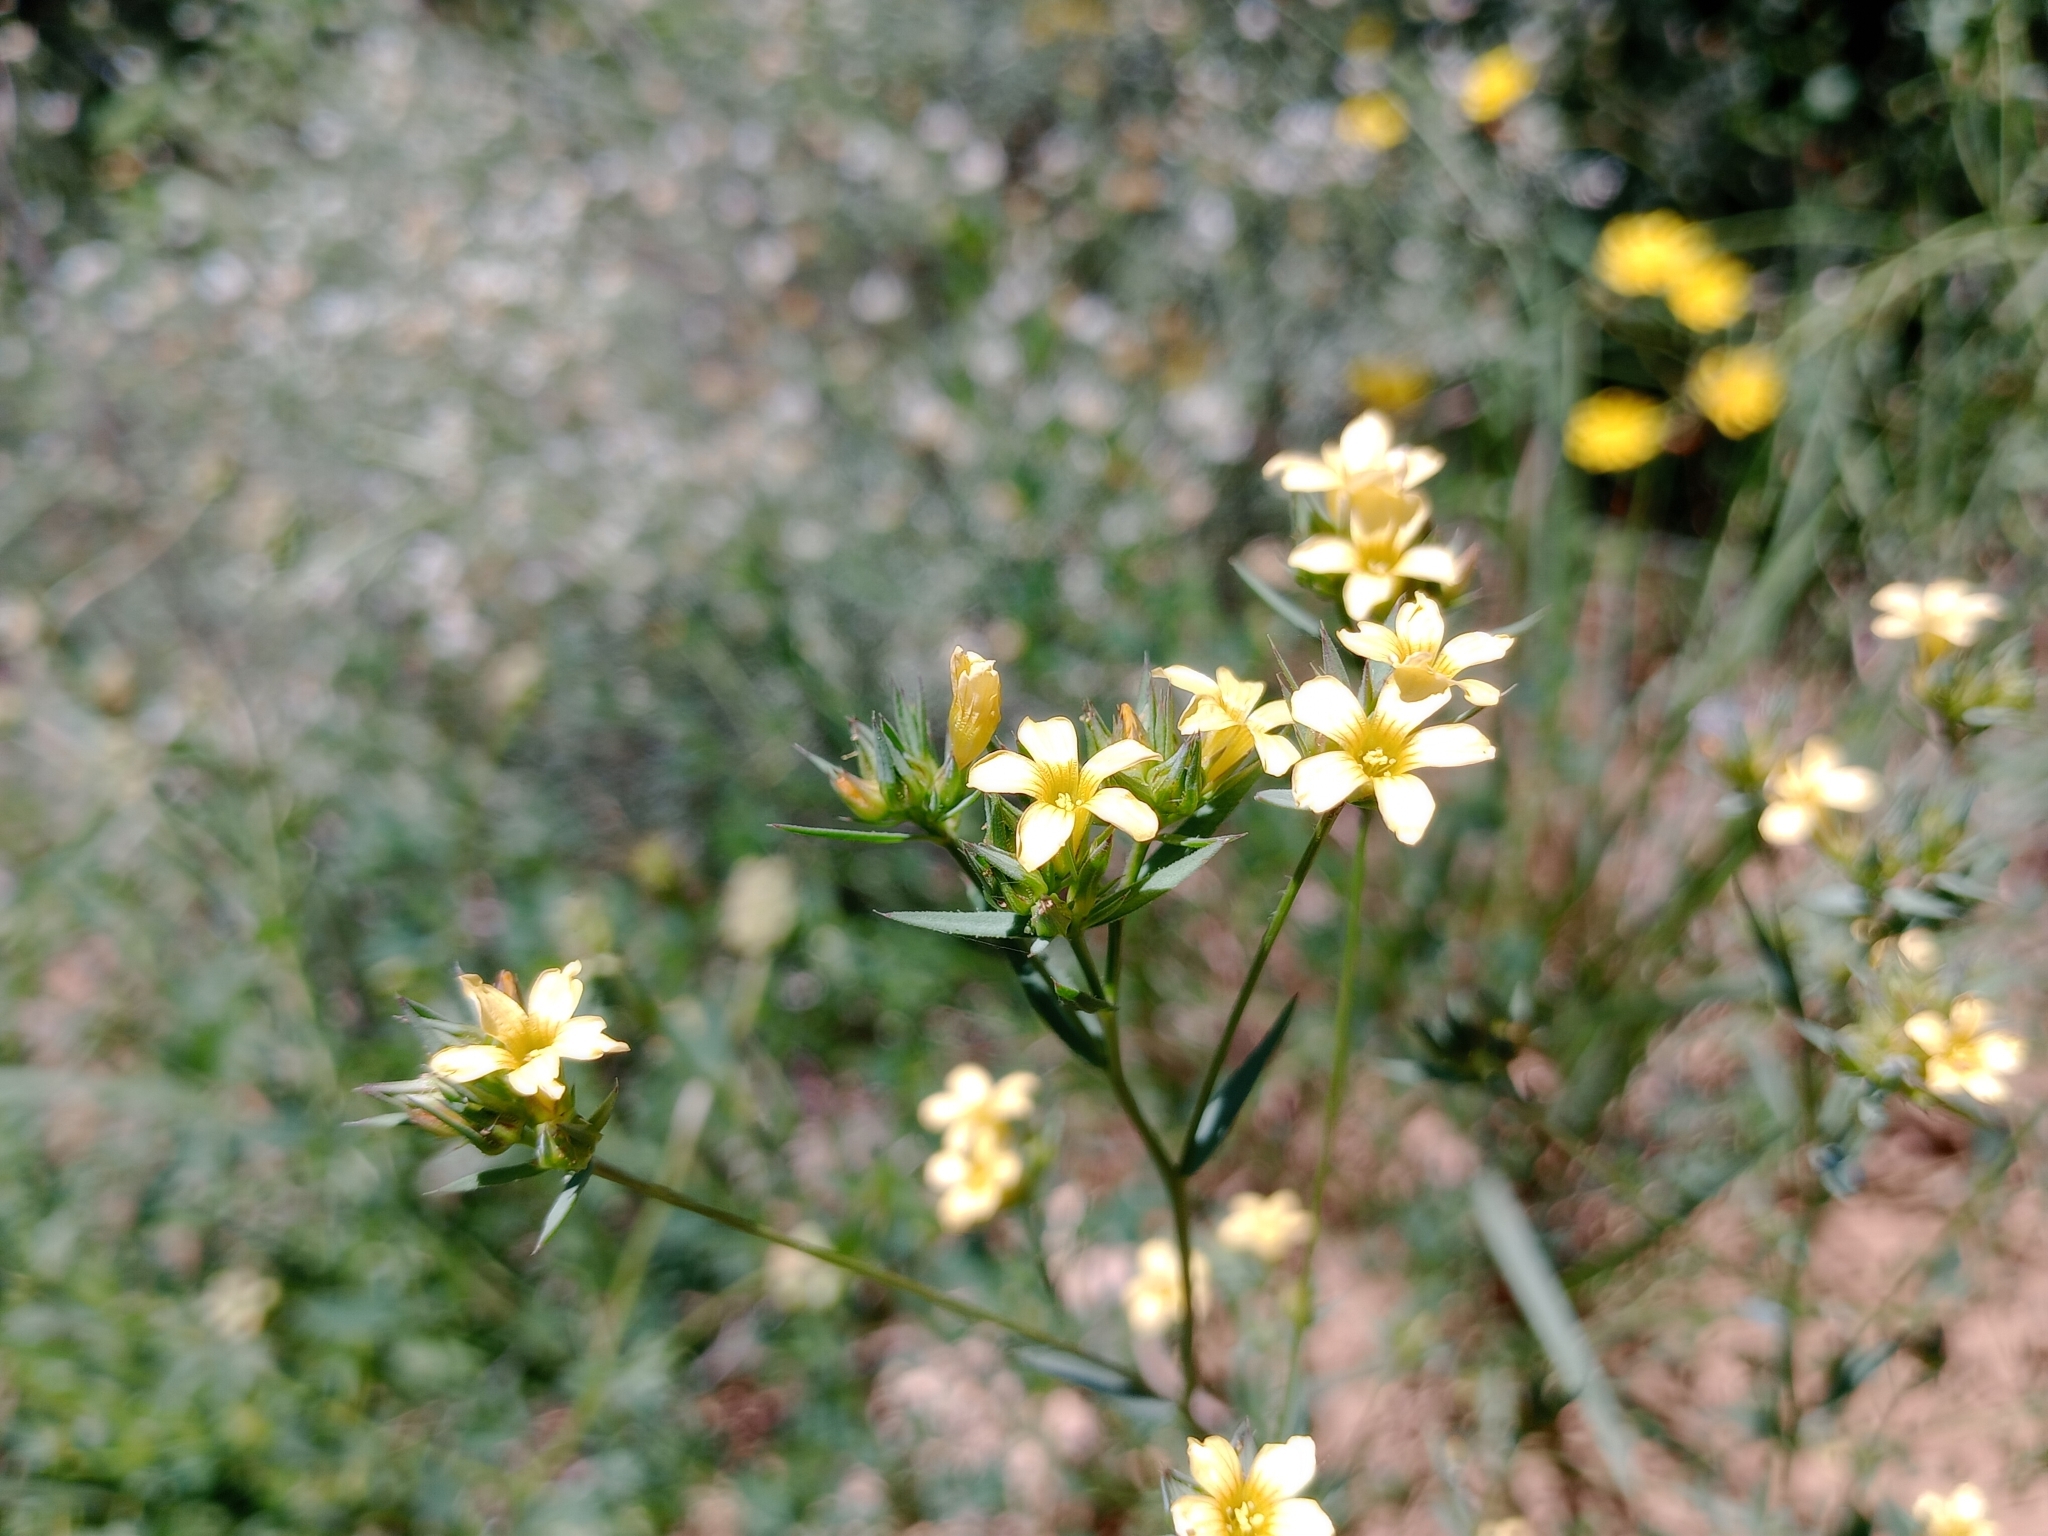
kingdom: Plantae
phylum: Tracheophyta
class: Magnoliopsida
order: Malpighiales
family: Linaceae
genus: Linum
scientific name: Linum strictum
